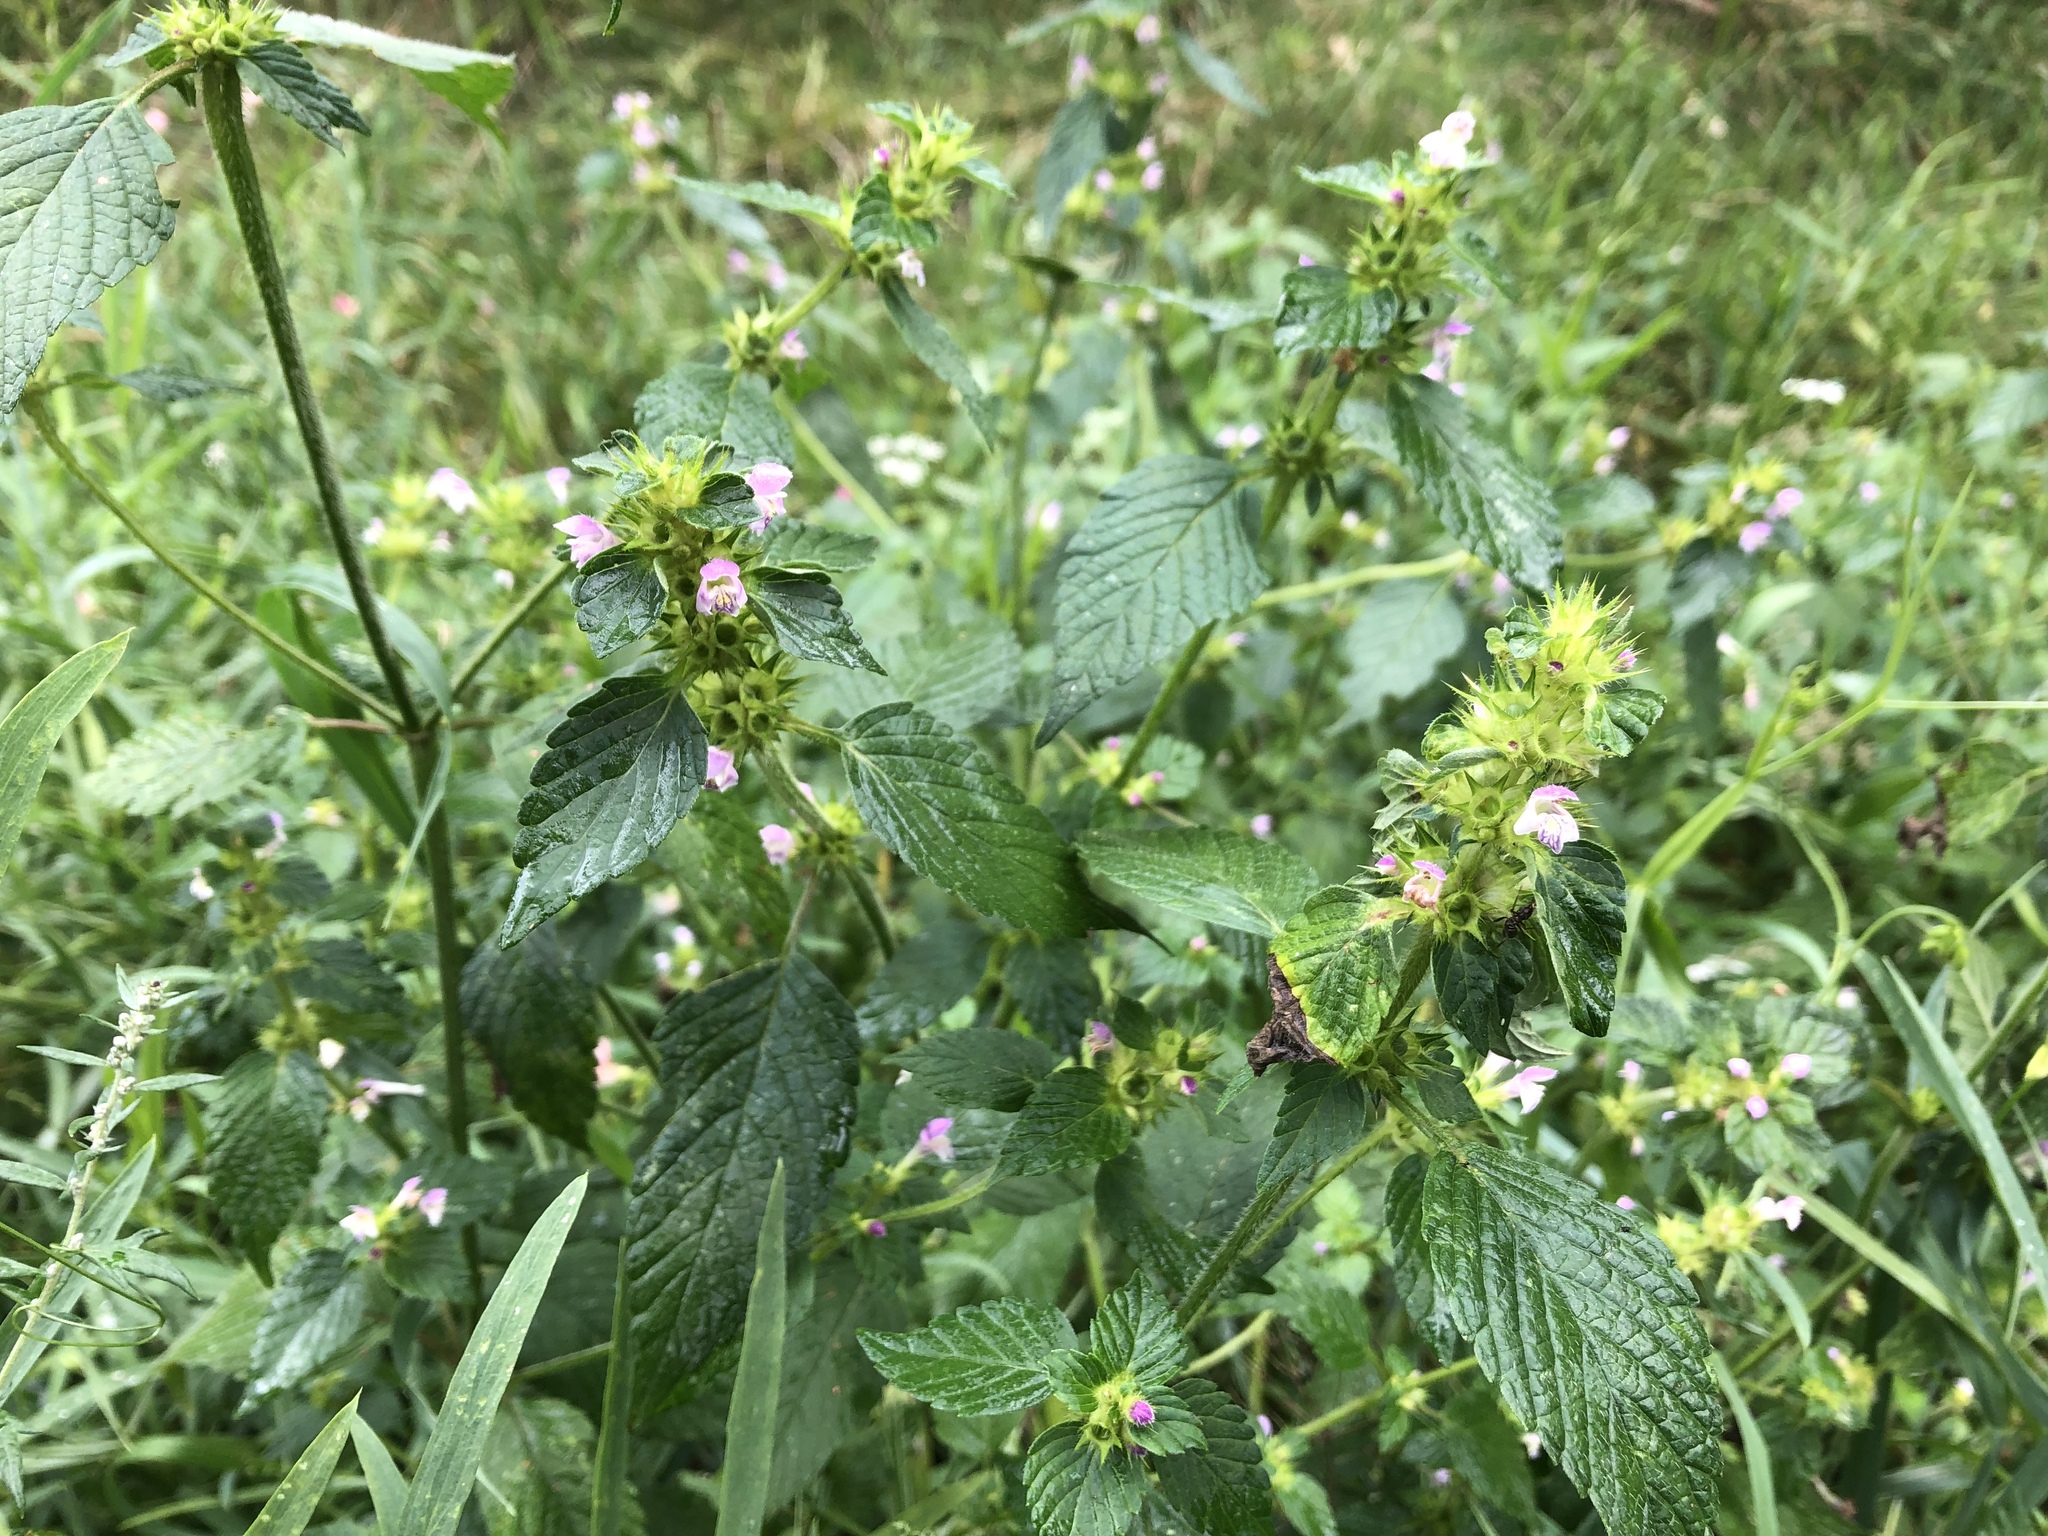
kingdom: Plantae
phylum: Tracheophyta
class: Magnoliopsida
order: Lamiales
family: Lamiaceae
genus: Galeopsis
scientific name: Galeopsis tetrahit
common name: Common hemp-nettle
